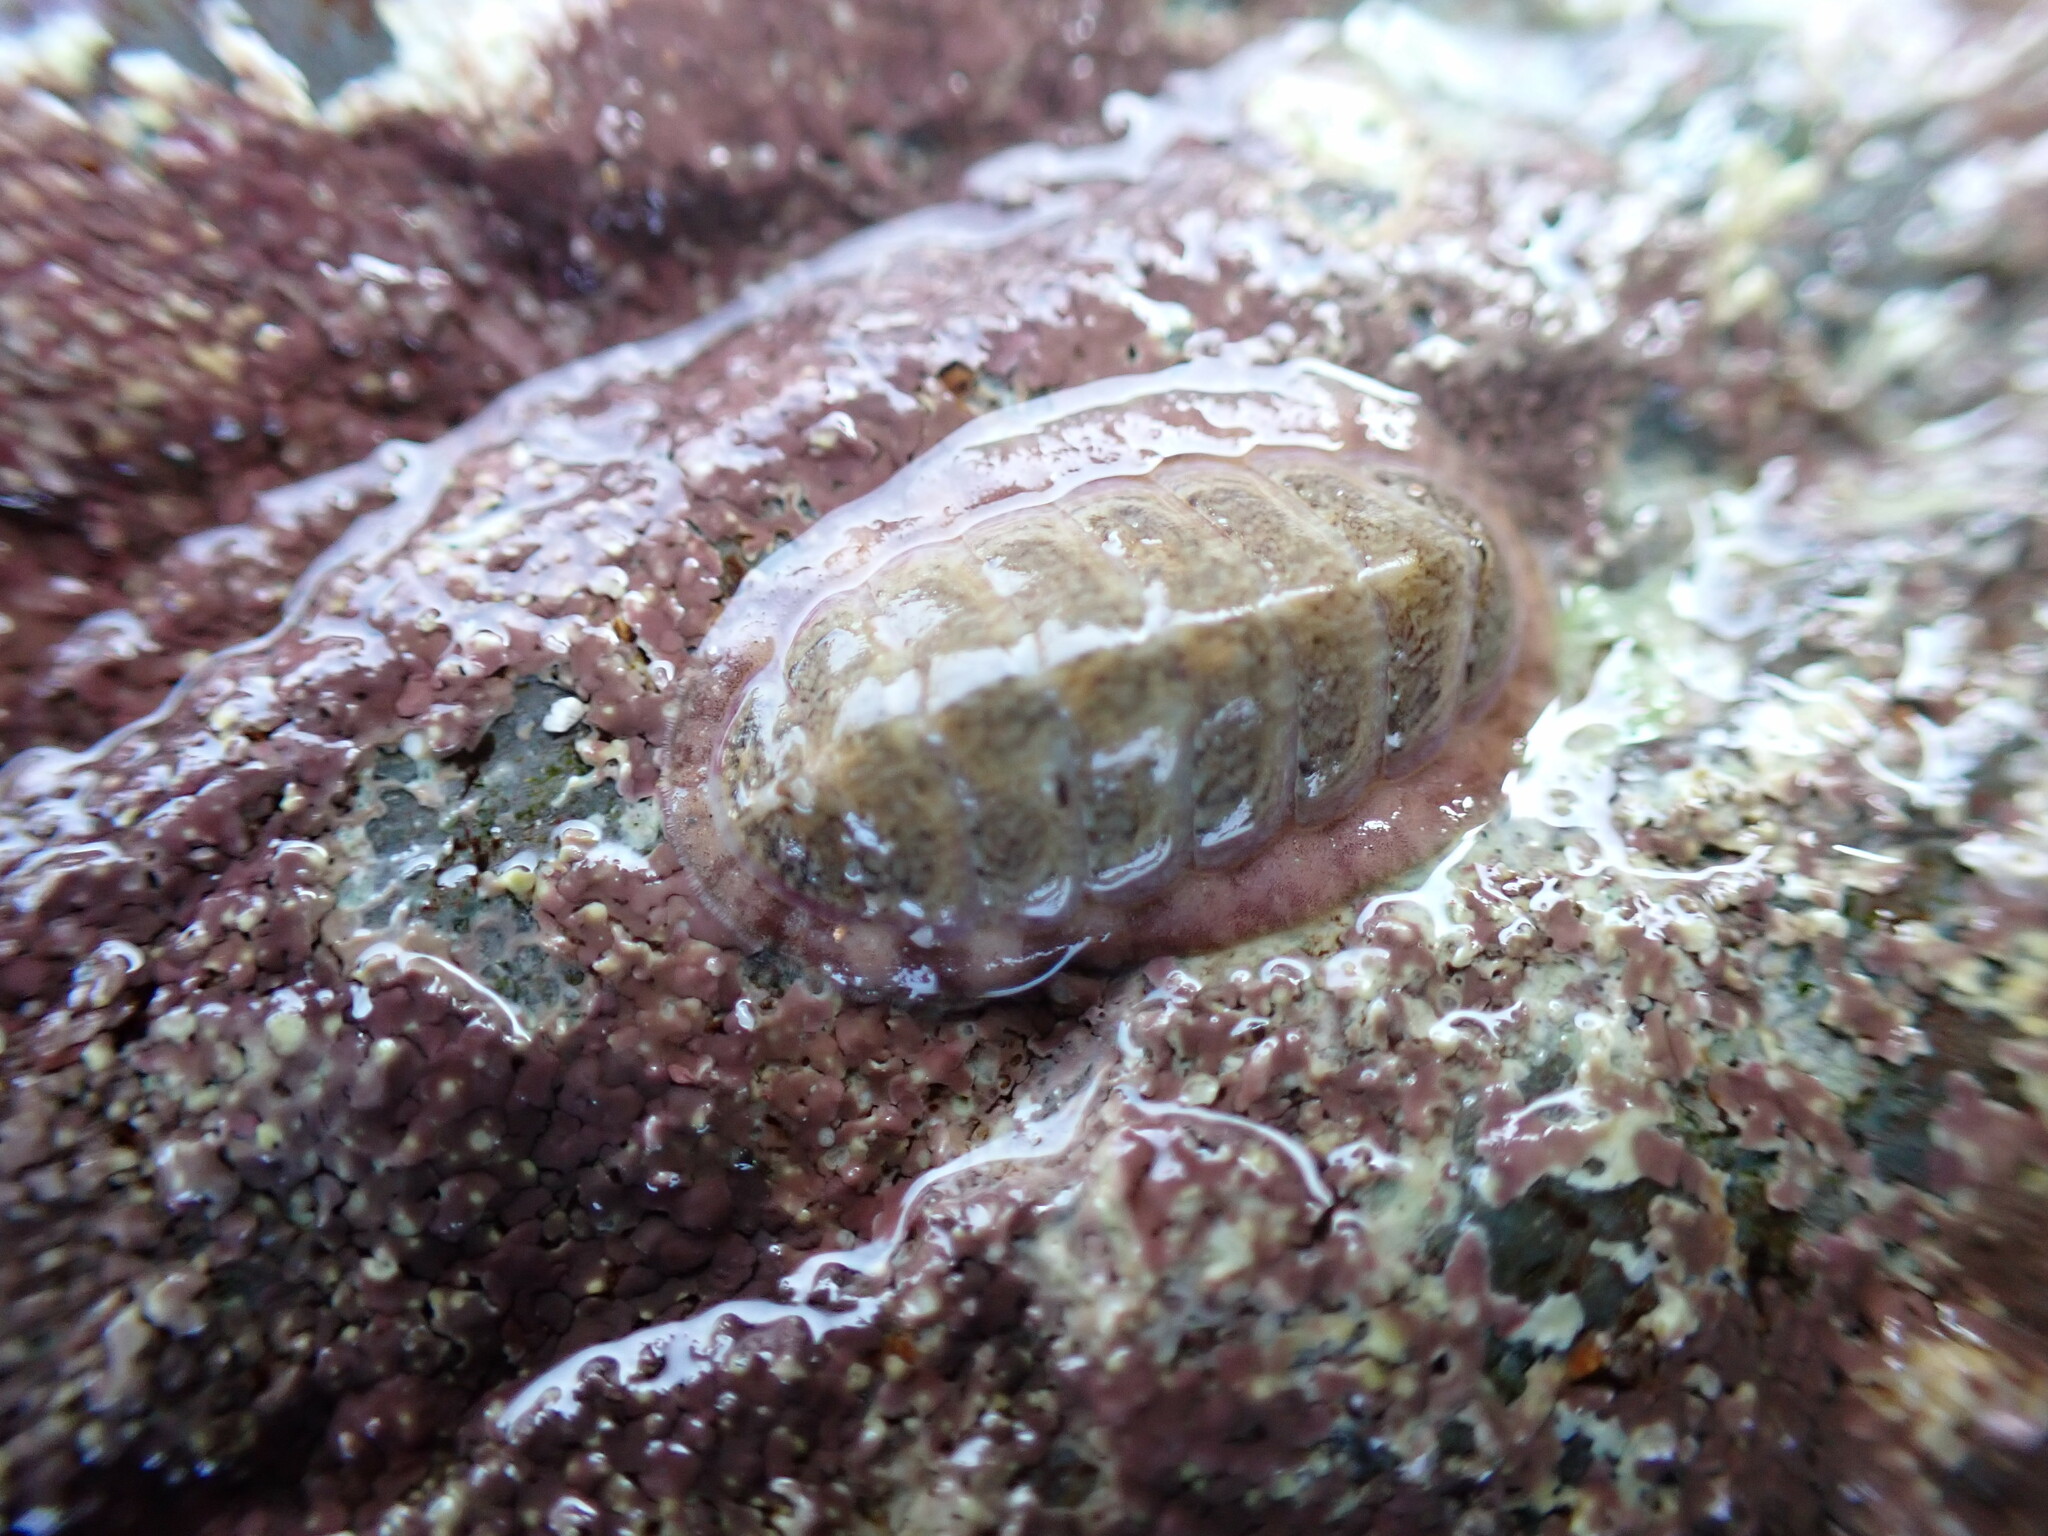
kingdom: Animalia
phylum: Mollusca
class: Polyplacophora
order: Chitonida
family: Tonicellidae
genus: Lepidochitona
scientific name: Lepidochitona cinerea
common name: Cinereous chiton
